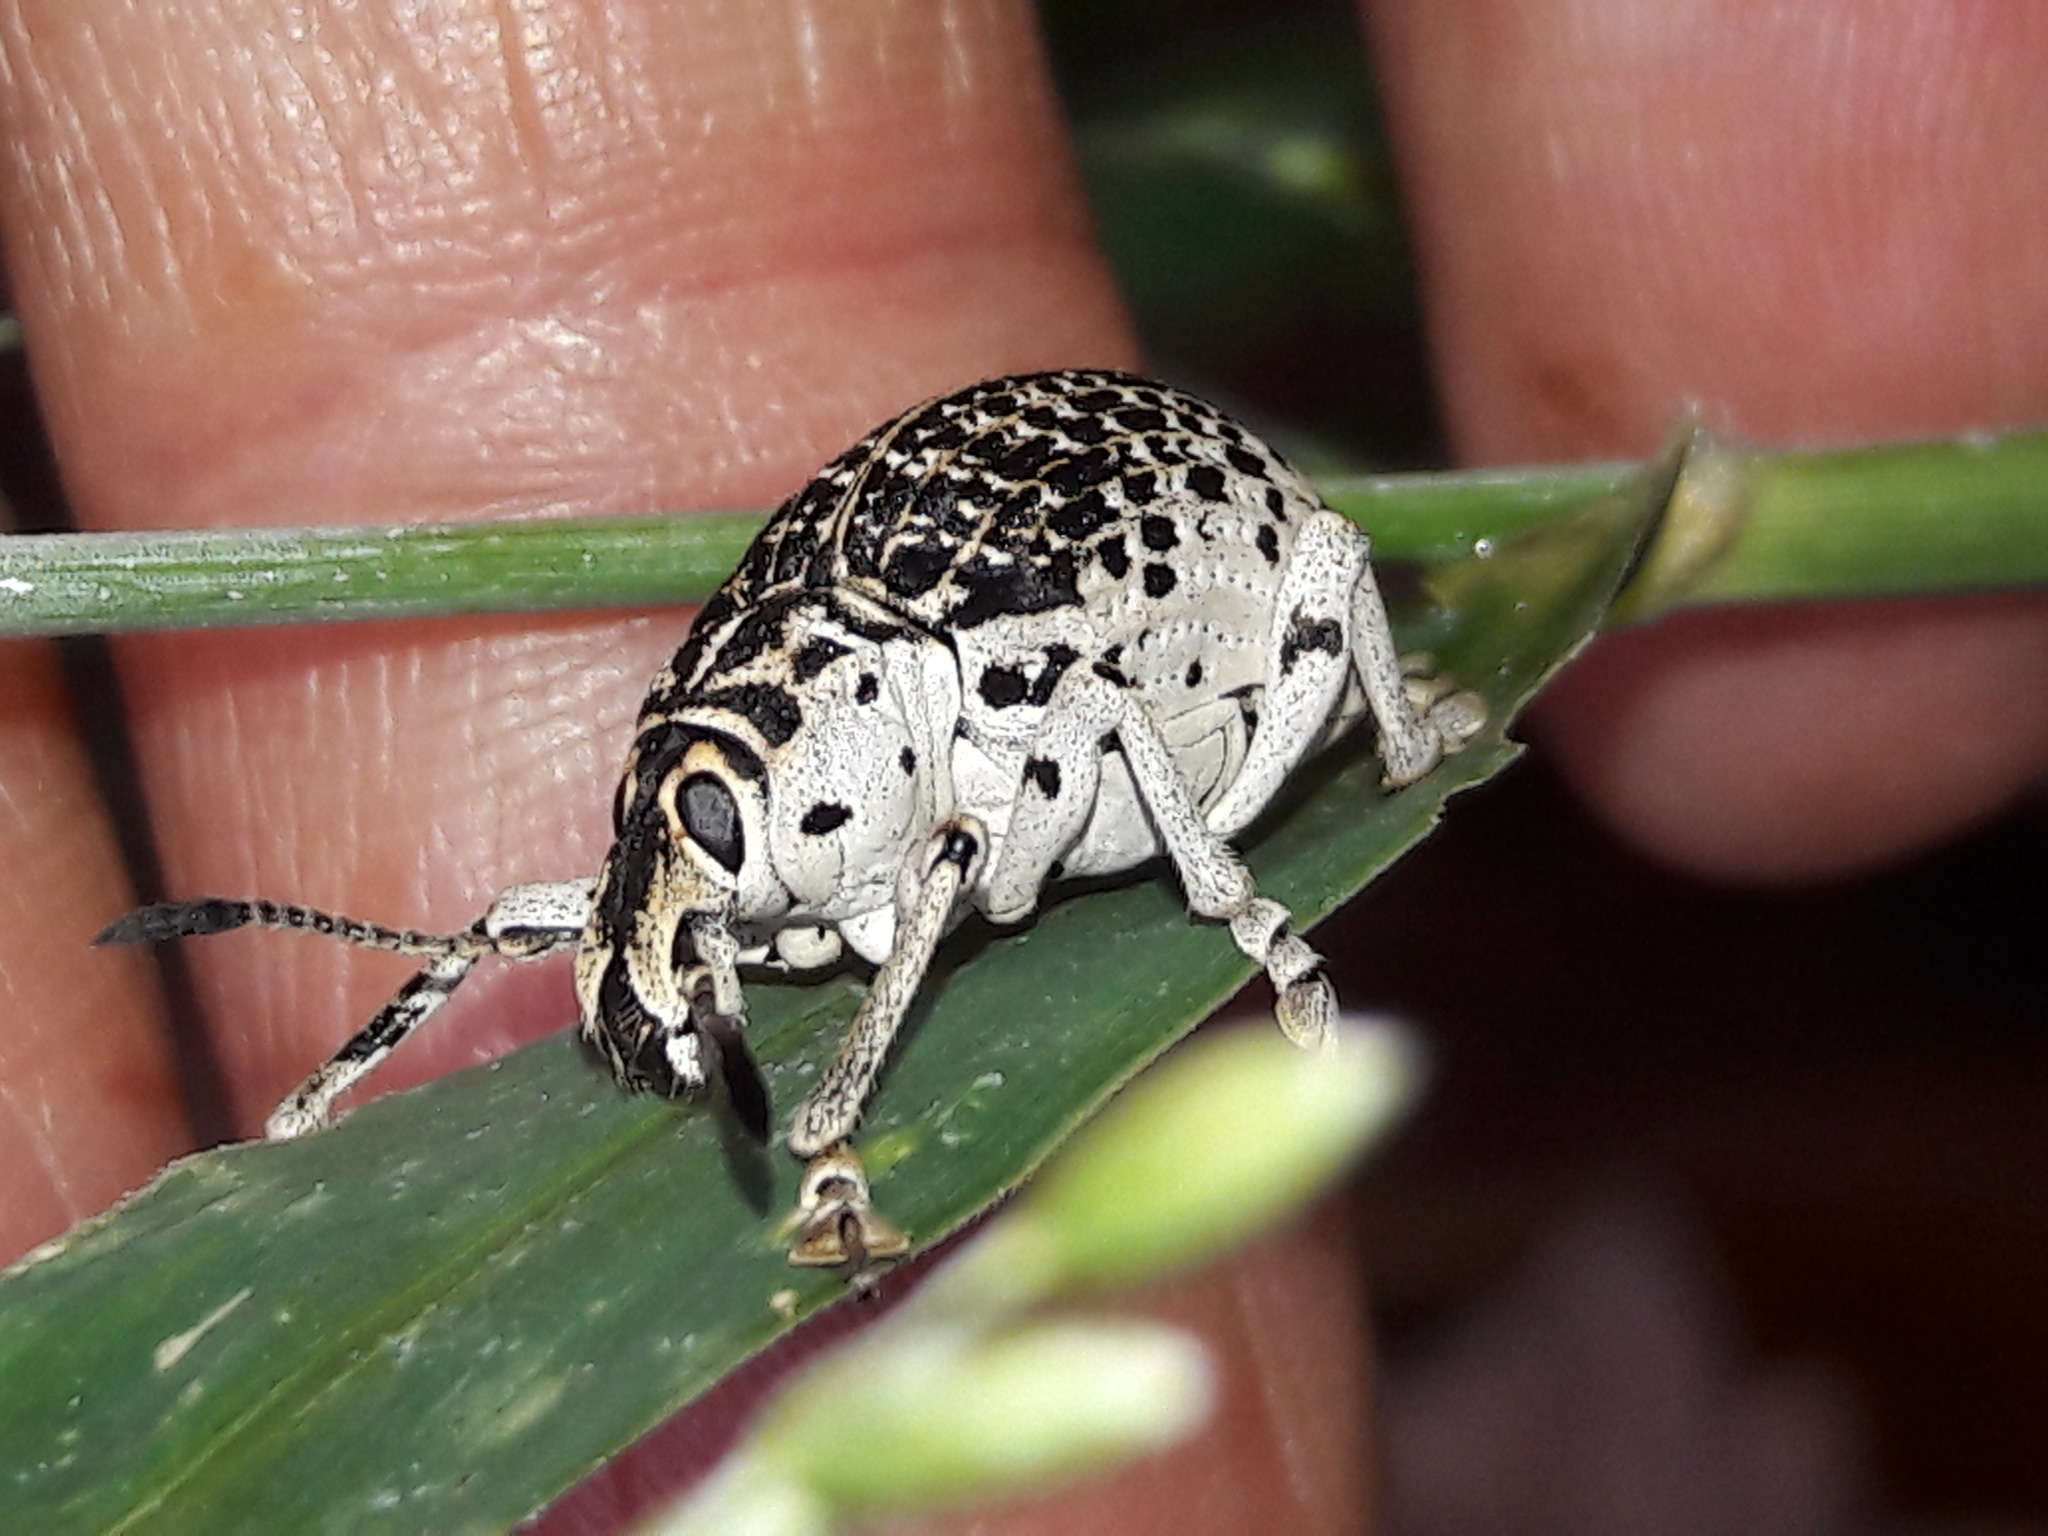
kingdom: Animalia
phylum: Arthropoda
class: Insecta
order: Coleoptera
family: Curculionidae
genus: Cydianerus
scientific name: Cydianerus latruncularius
